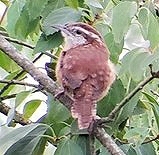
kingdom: Animalia
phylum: Chordata
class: Aves
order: Passeriformes
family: Troglodytidae
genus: Thryothorus
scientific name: Thryothorus ludovicianus
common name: Carolina wren
